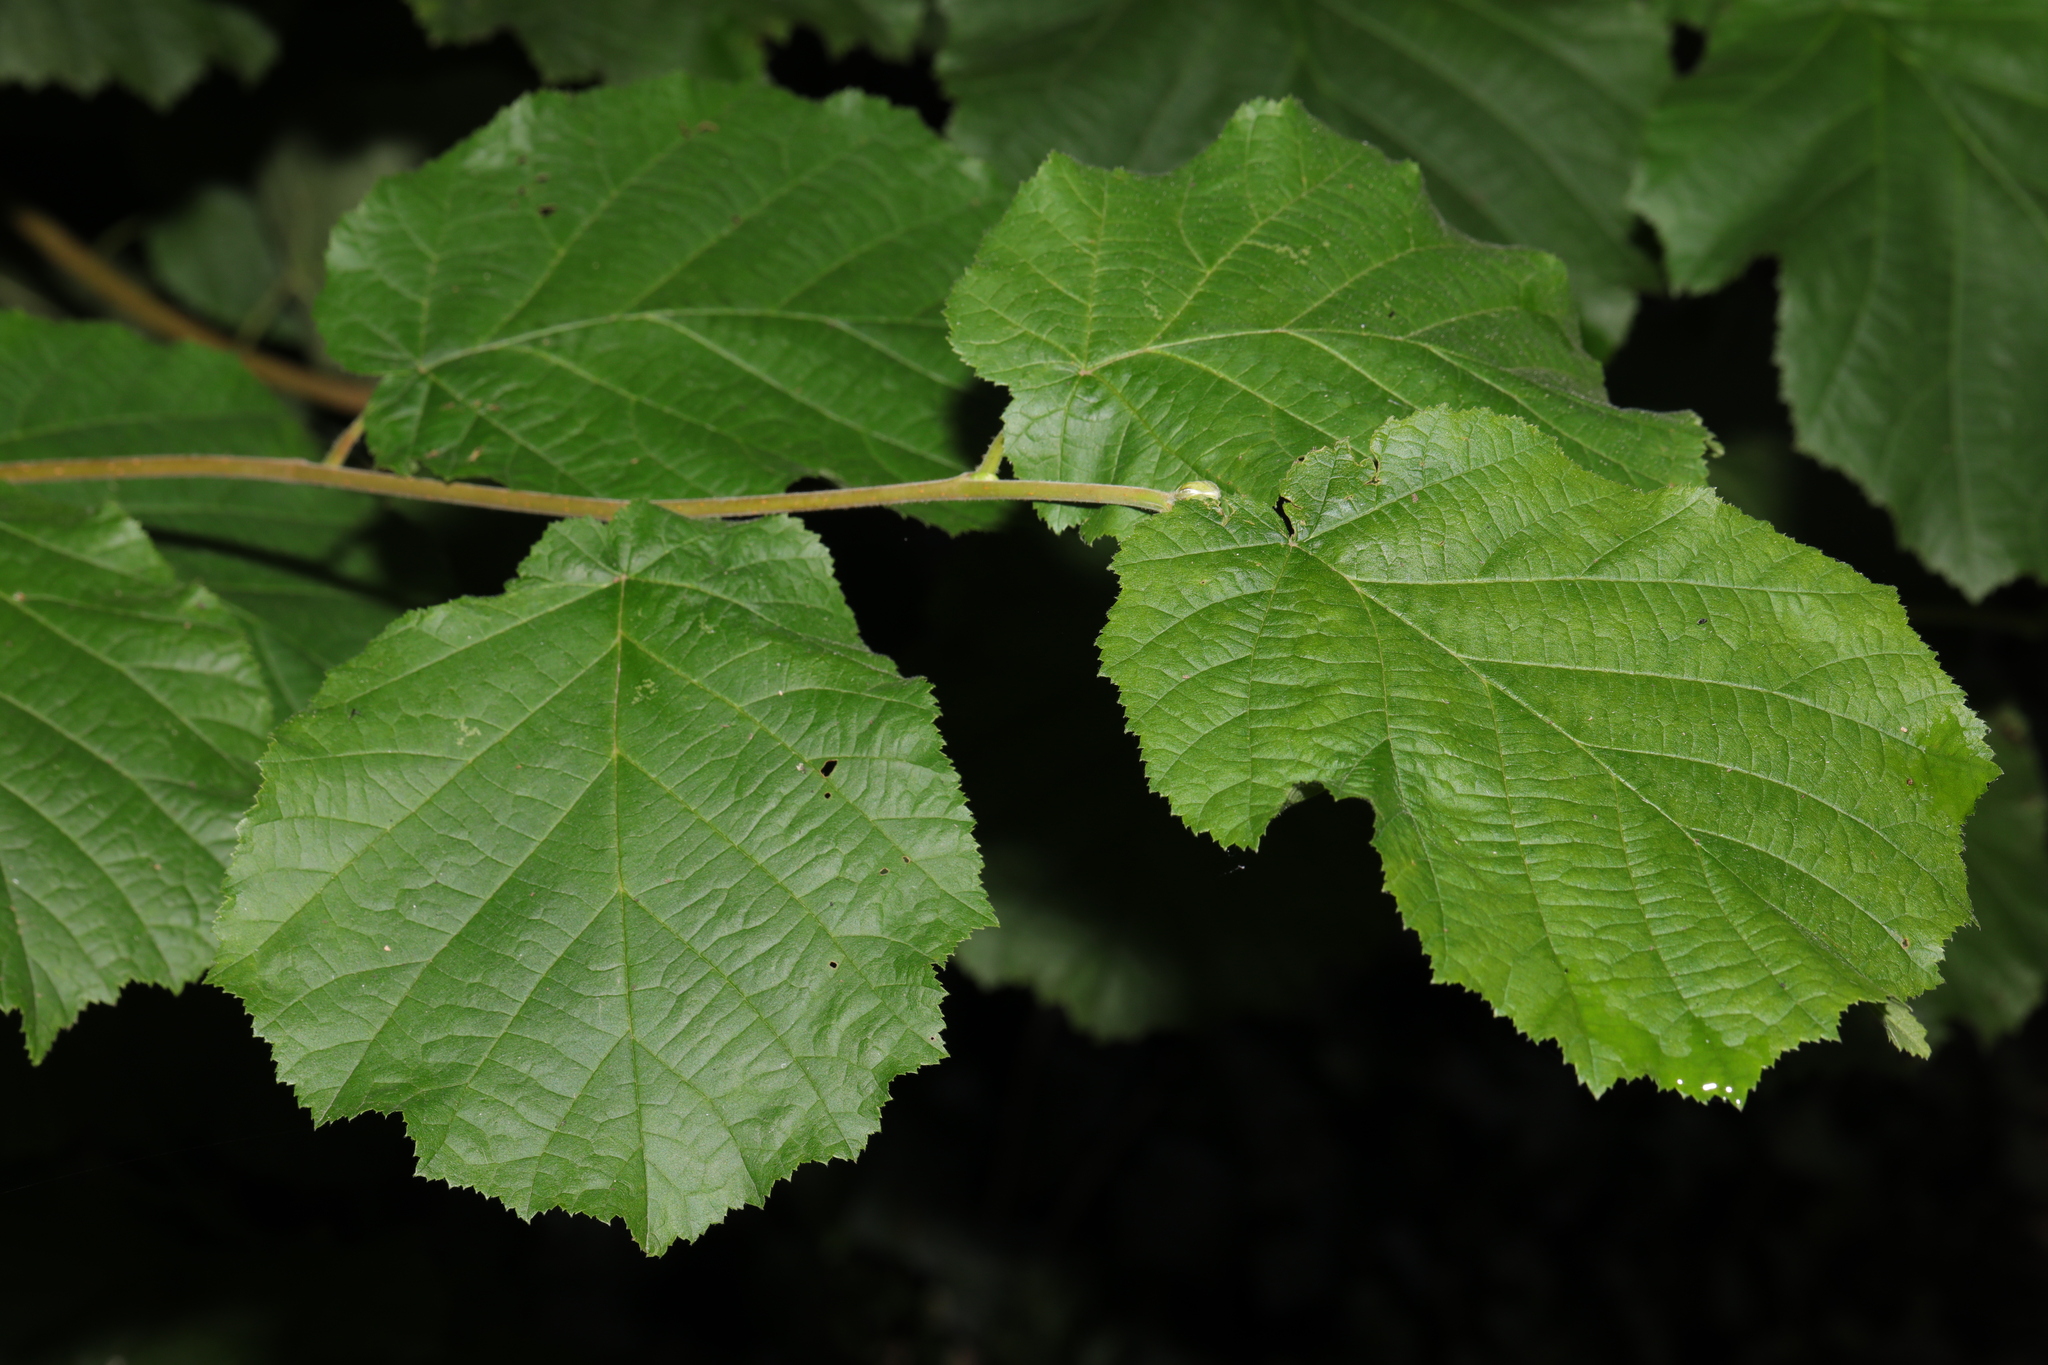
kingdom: Plantae
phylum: Tracheophyta
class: Magnoliopsida
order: Fagales
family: Betulaceae
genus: Corylus
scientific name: Corylus avellana
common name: European hazel
